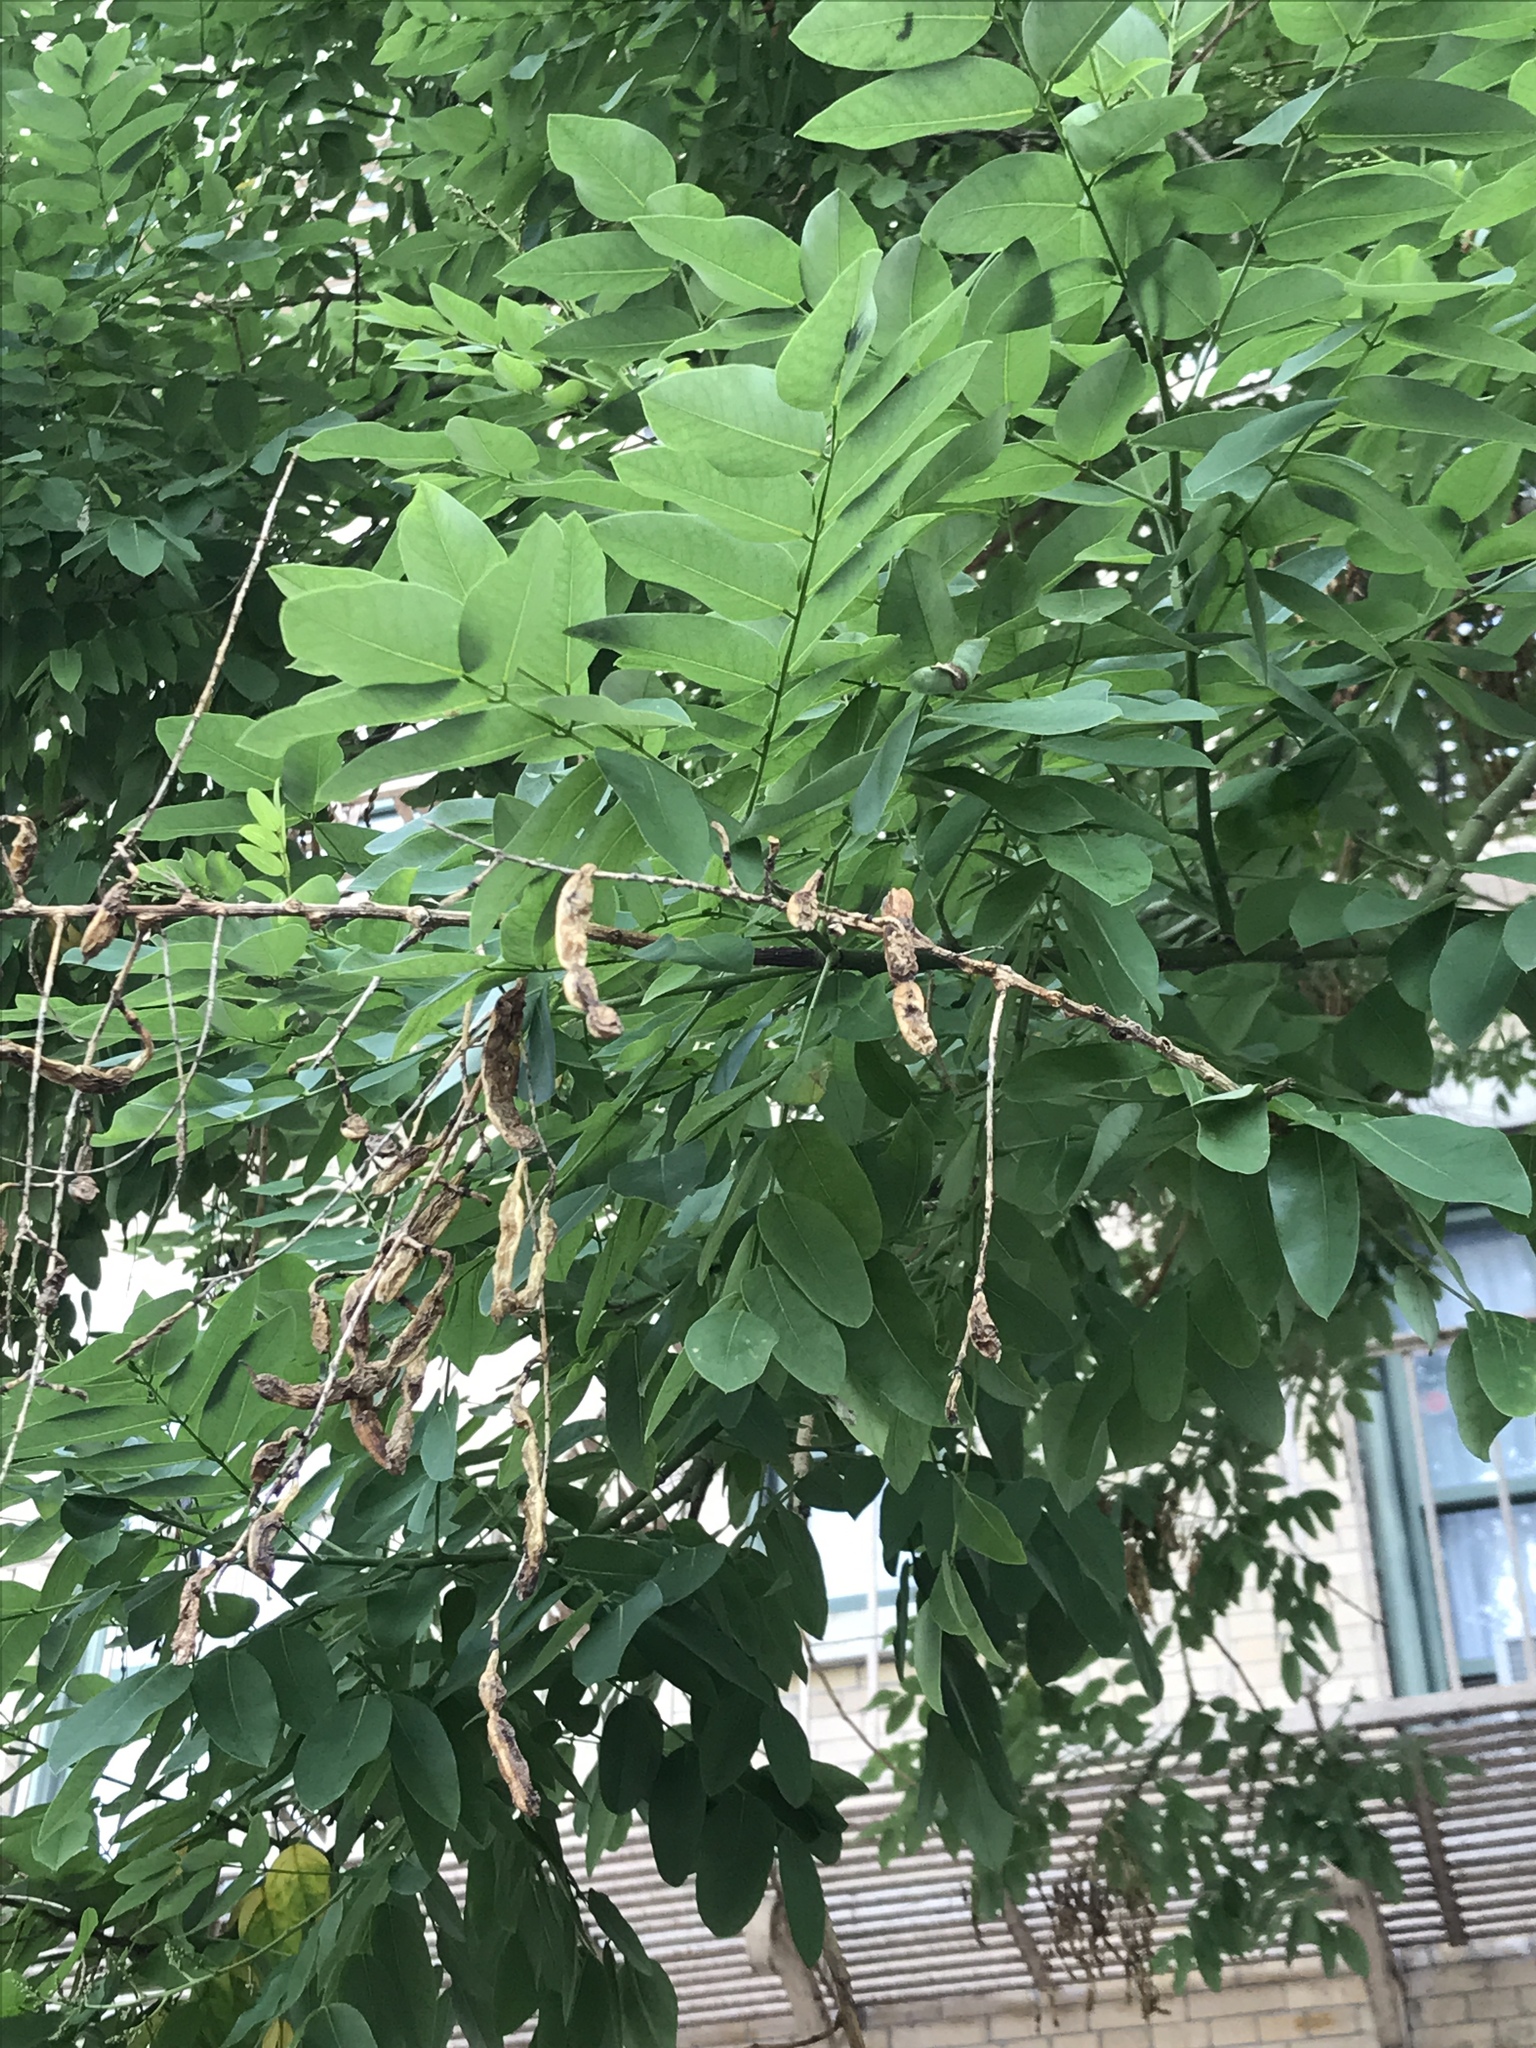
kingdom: Plantae
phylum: Tracheophyta
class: Magnoliopsida
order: Fabales
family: Fabaceae
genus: Robinia
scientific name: Robinia pseudoacacia
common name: Black locust
